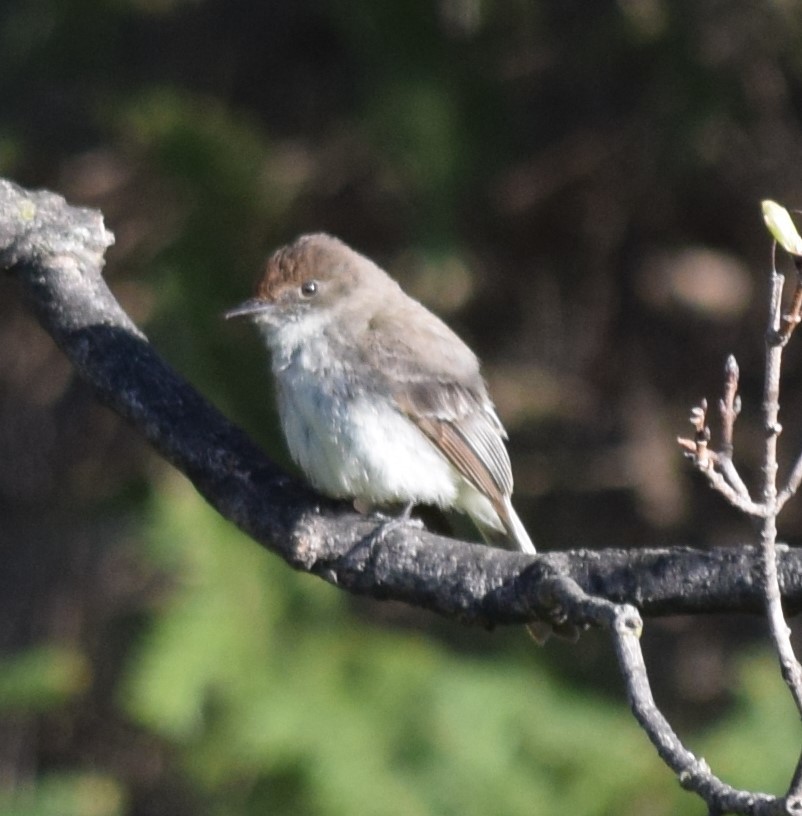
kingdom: Animalia
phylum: Chordata
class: Aves
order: Passeriformes
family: Tyrannidae
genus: Sayornis
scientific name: Sayornis phoebe
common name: Eastern phoebe
